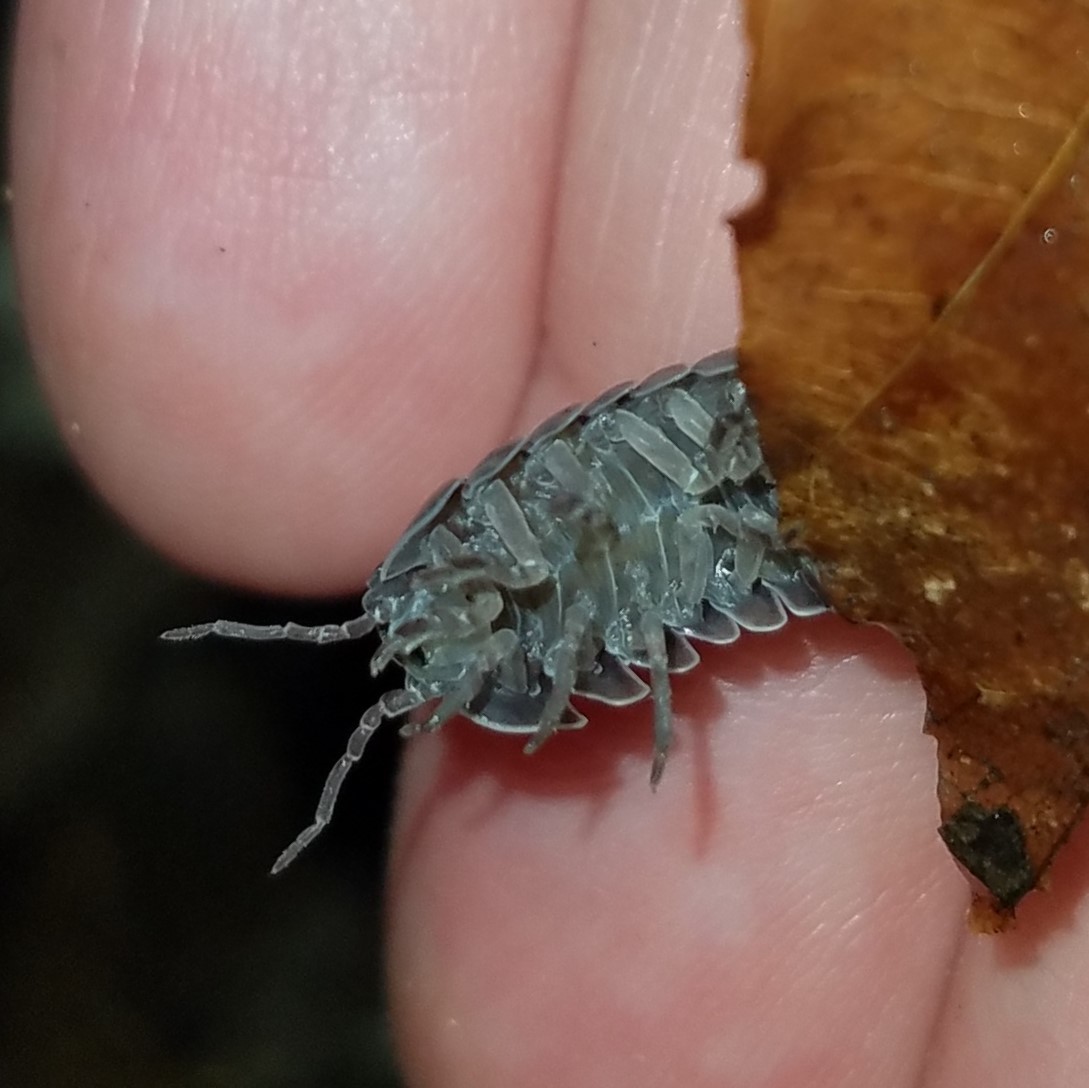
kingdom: Animalia
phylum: Arthropoda
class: Malacostraca
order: Isopoda
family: Armadillidiidae
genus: Armadillidium
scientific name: Armadillidium vulgare
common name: Common pill woodlouse
